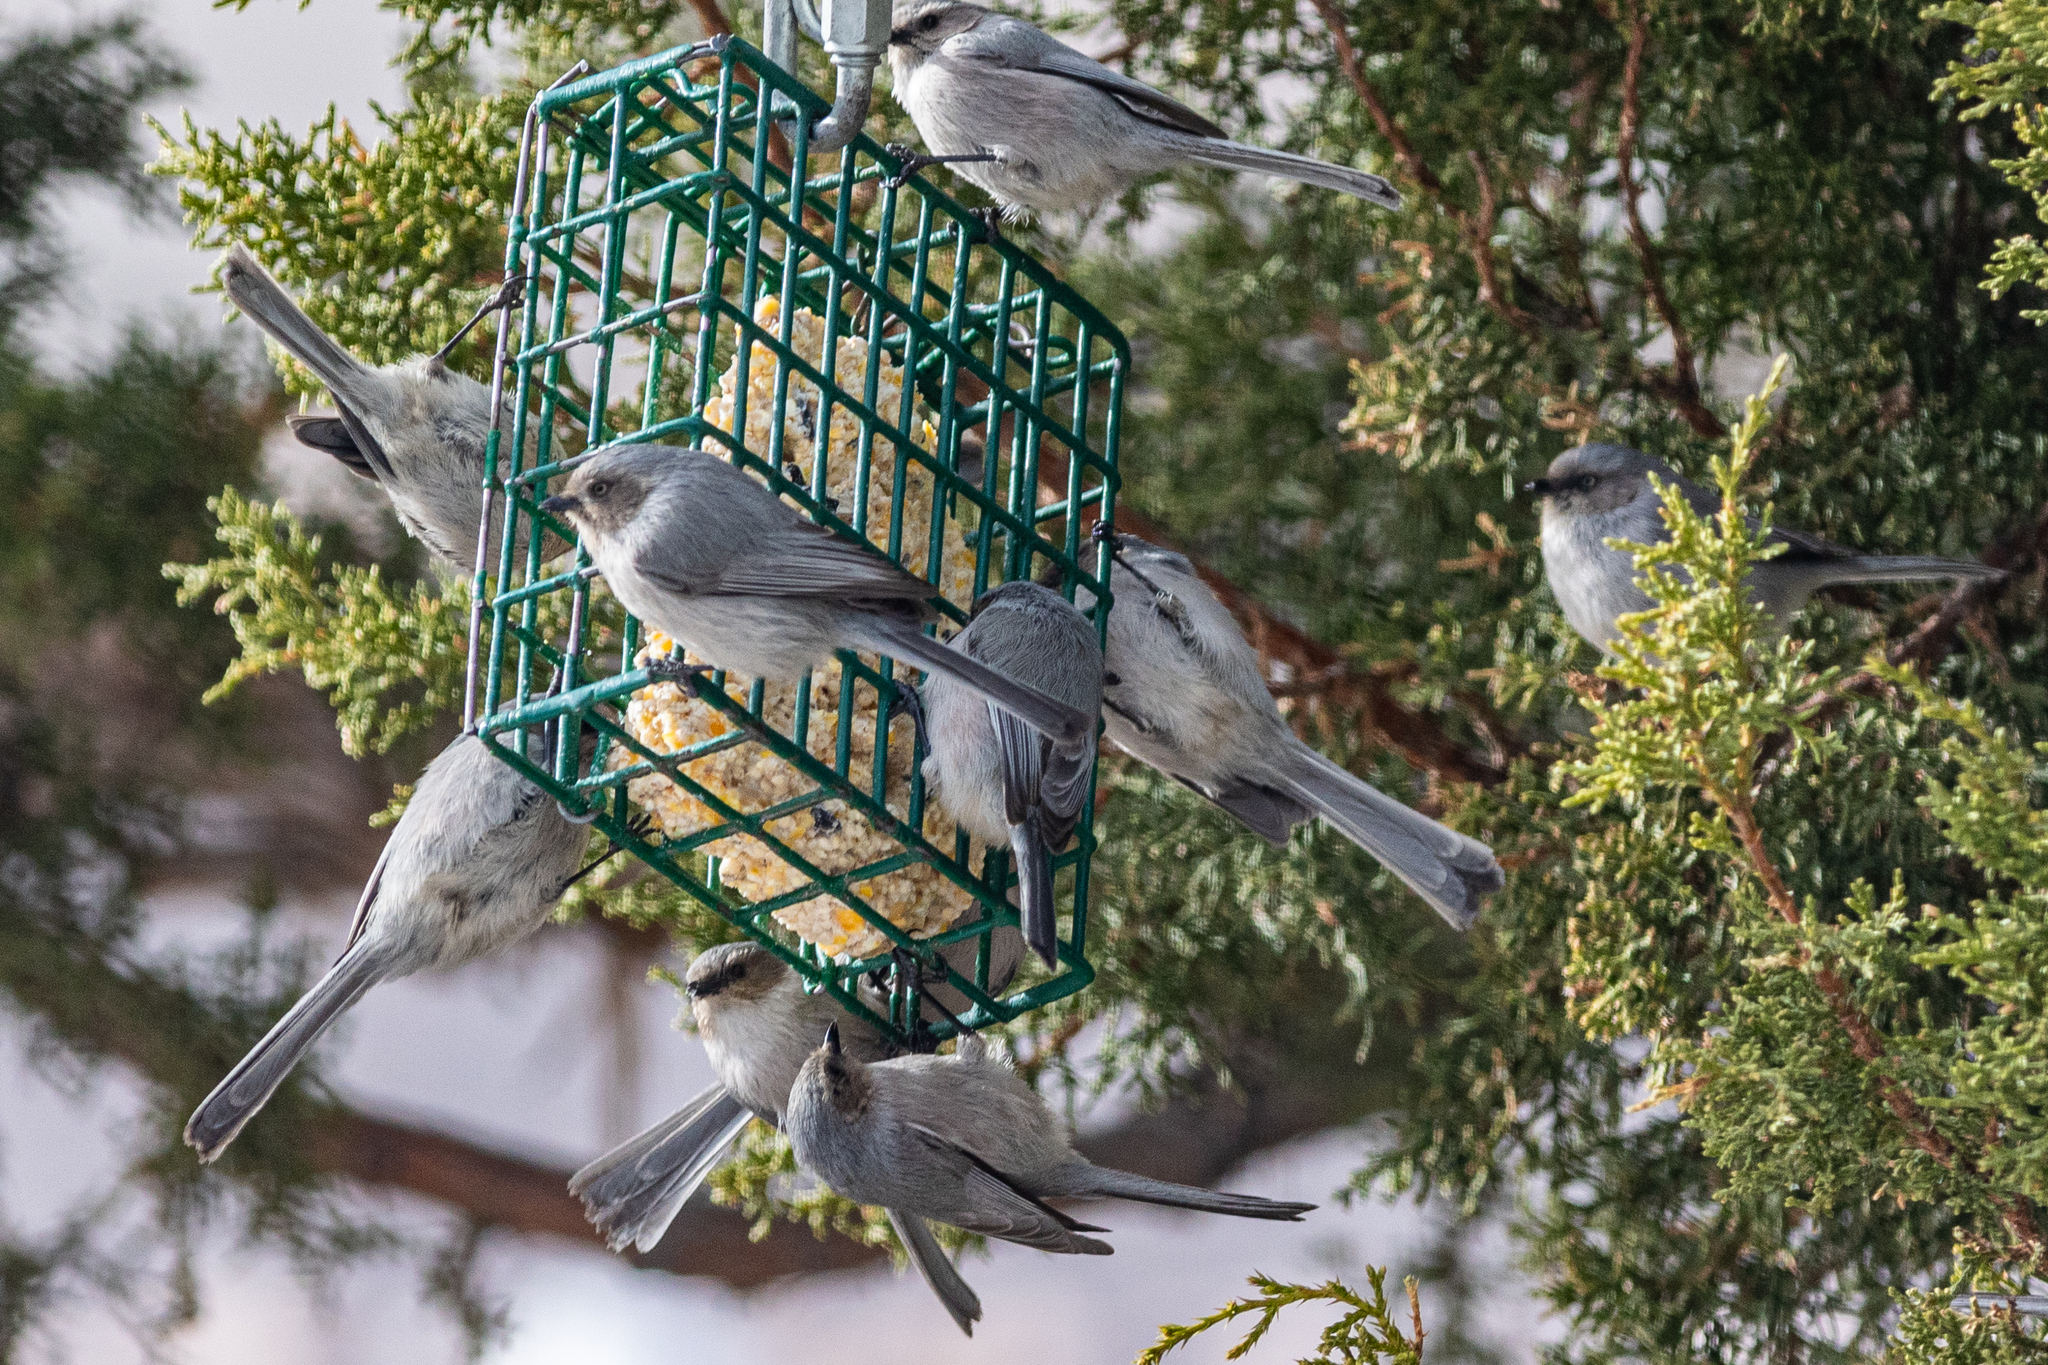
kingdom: Animalia
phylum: Chordata
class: Aves
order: Passeriformes
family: Aegithalidae
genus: Psaltriparus
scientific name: Psaltriparus minimus
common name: American bushtit
